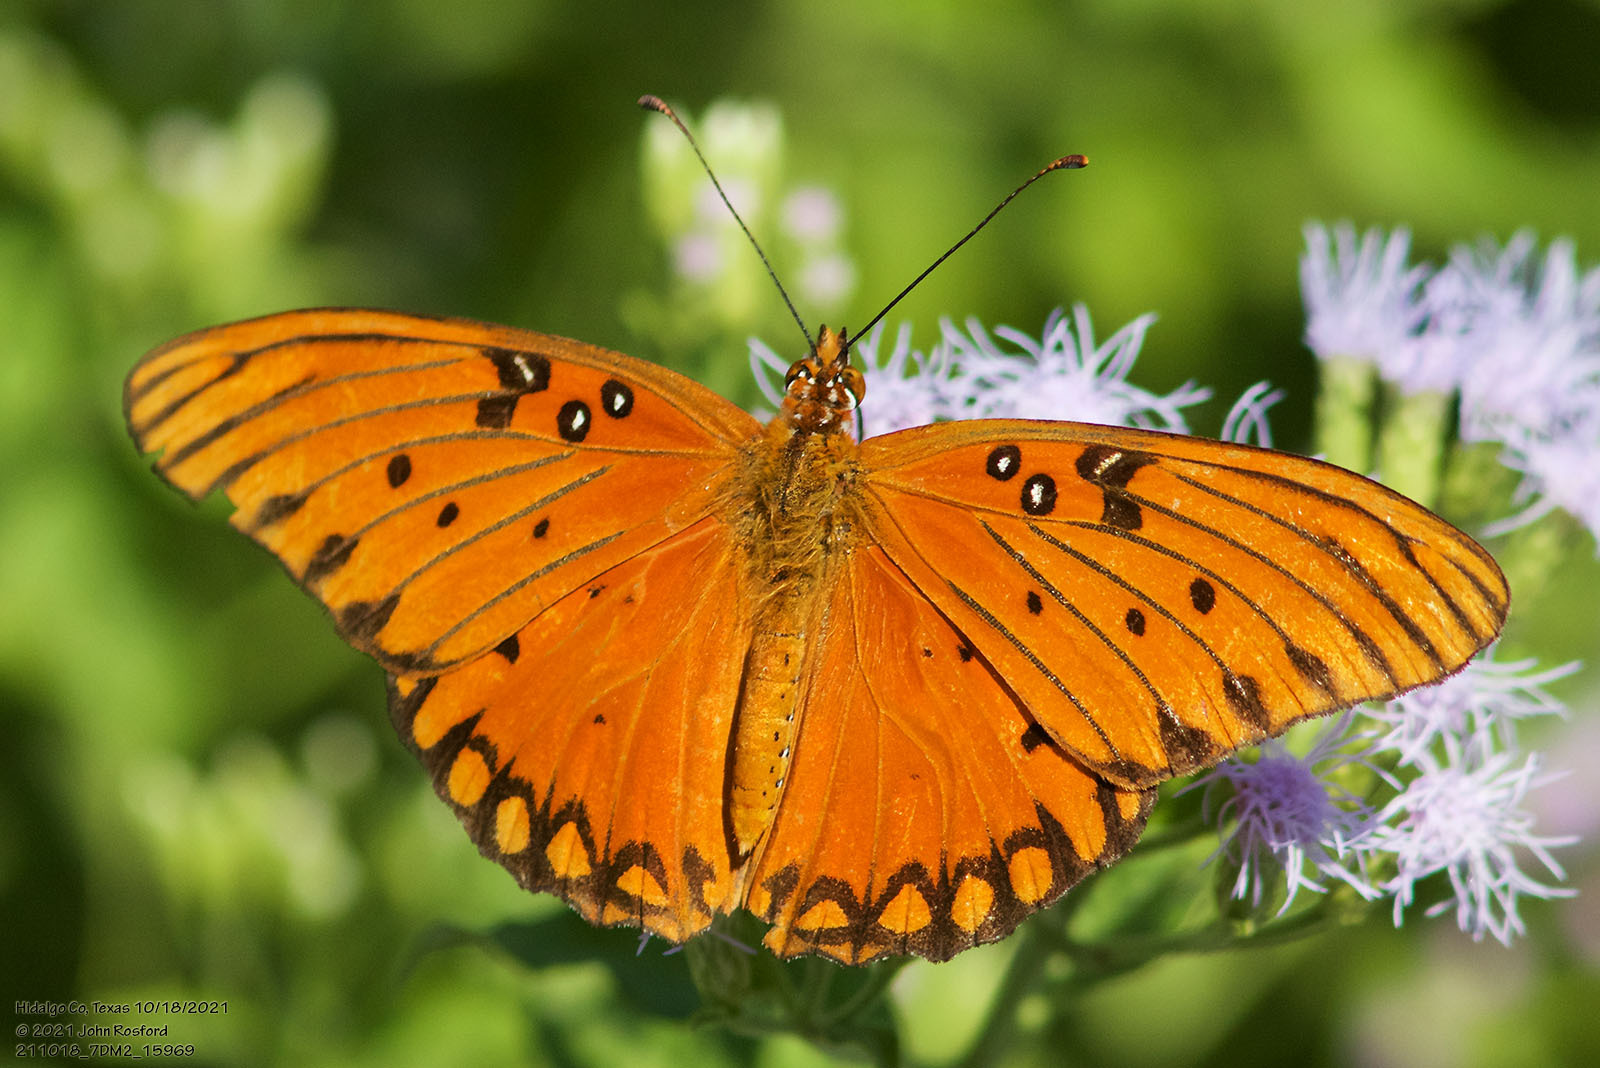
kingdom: Animalia
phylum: Arthropoda
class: Insecta
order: Lepidoptera
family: Nymphalidae
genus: Dione
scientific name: Dione vanillae
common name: Gulf fritillary
